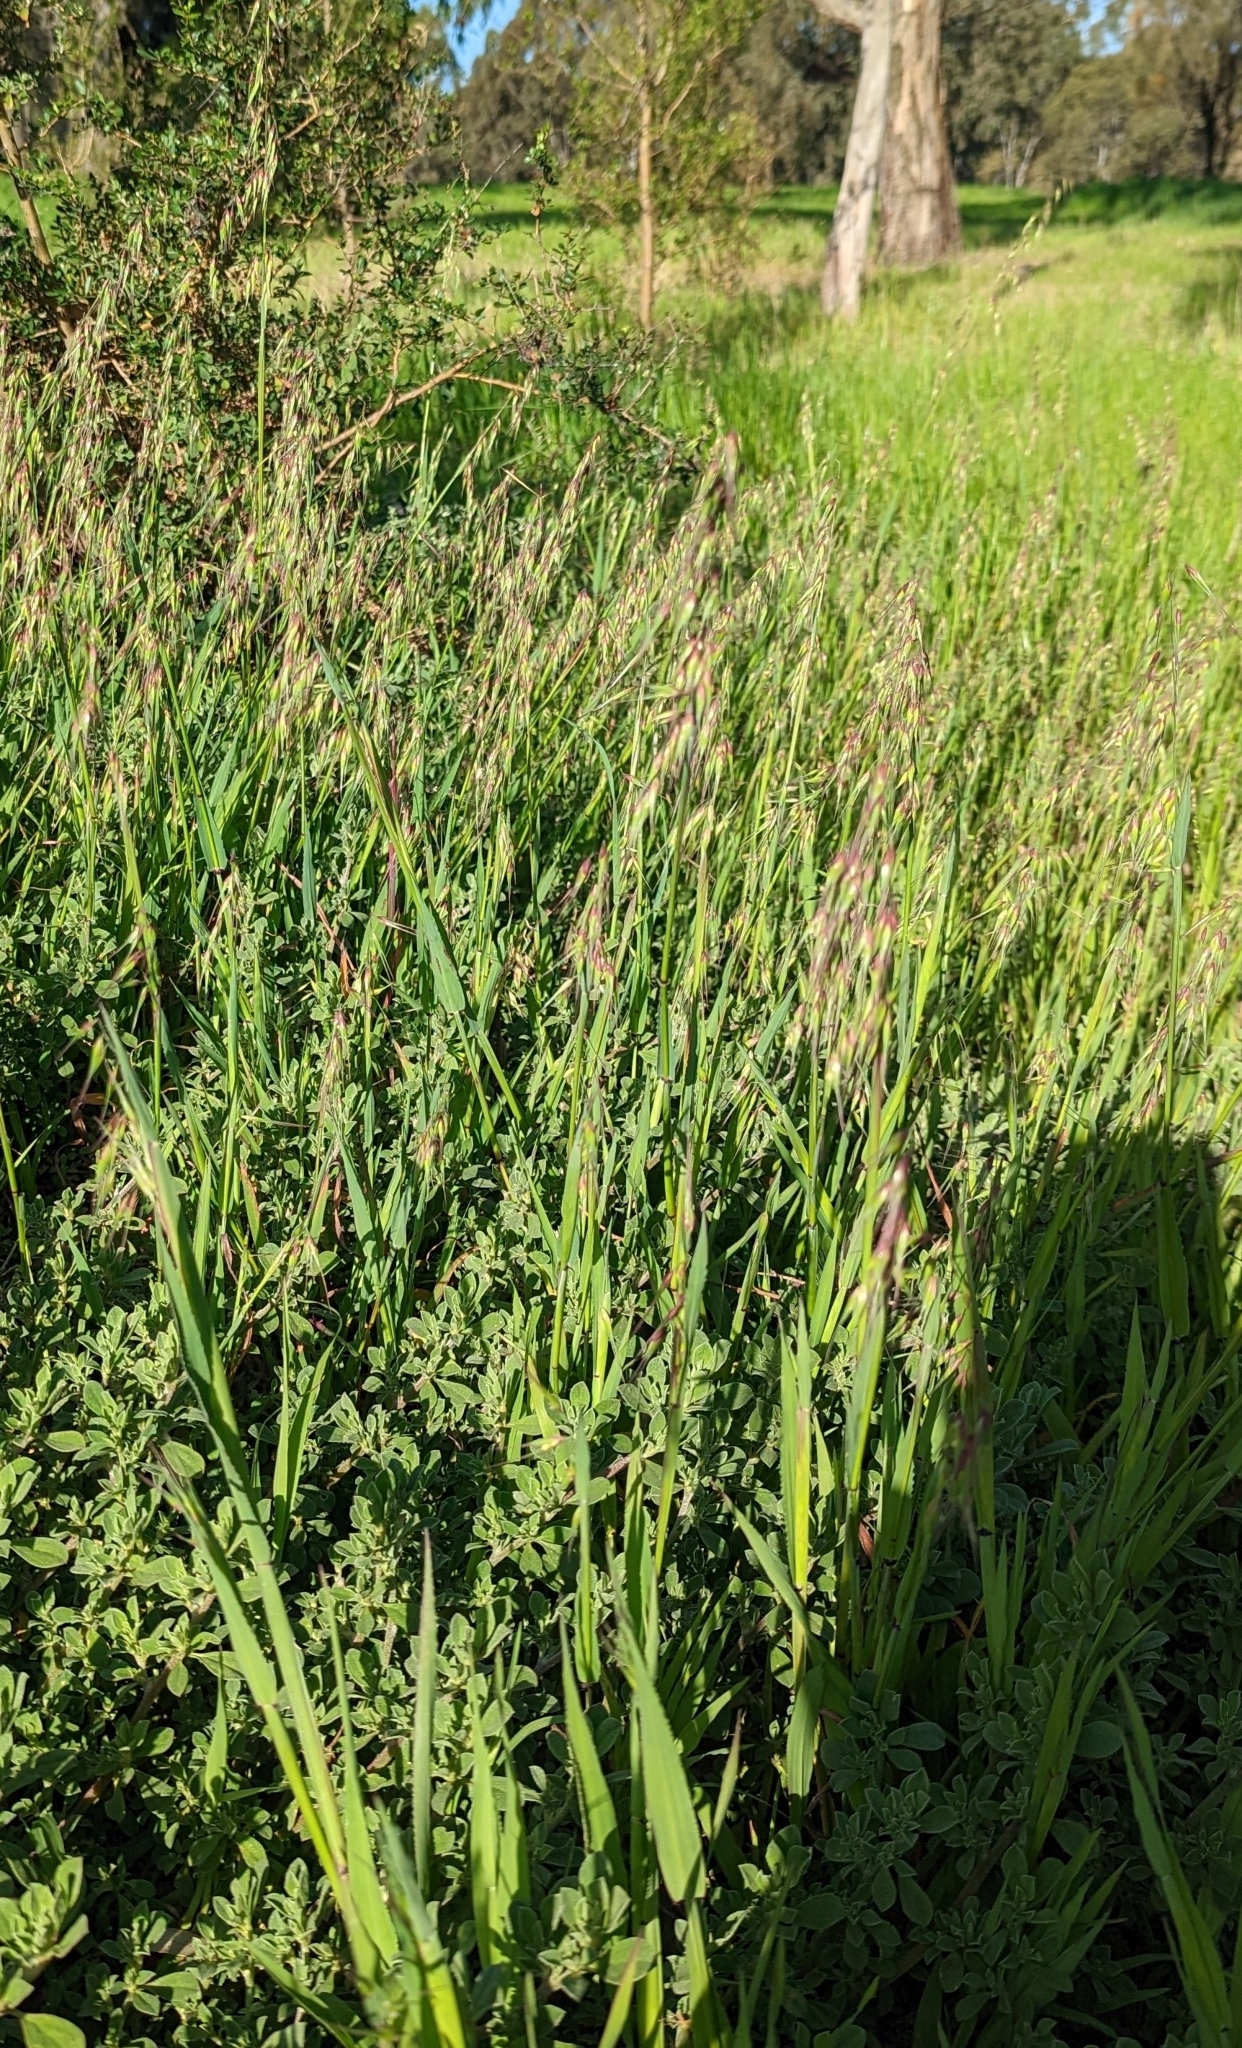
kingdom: Plantae
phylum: Tracheophyta
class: Liliopsida
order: Poales
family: Poaceae
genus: Ehrharta
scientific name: Ehrharta longiflora
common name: Longflowered veldtgrass
